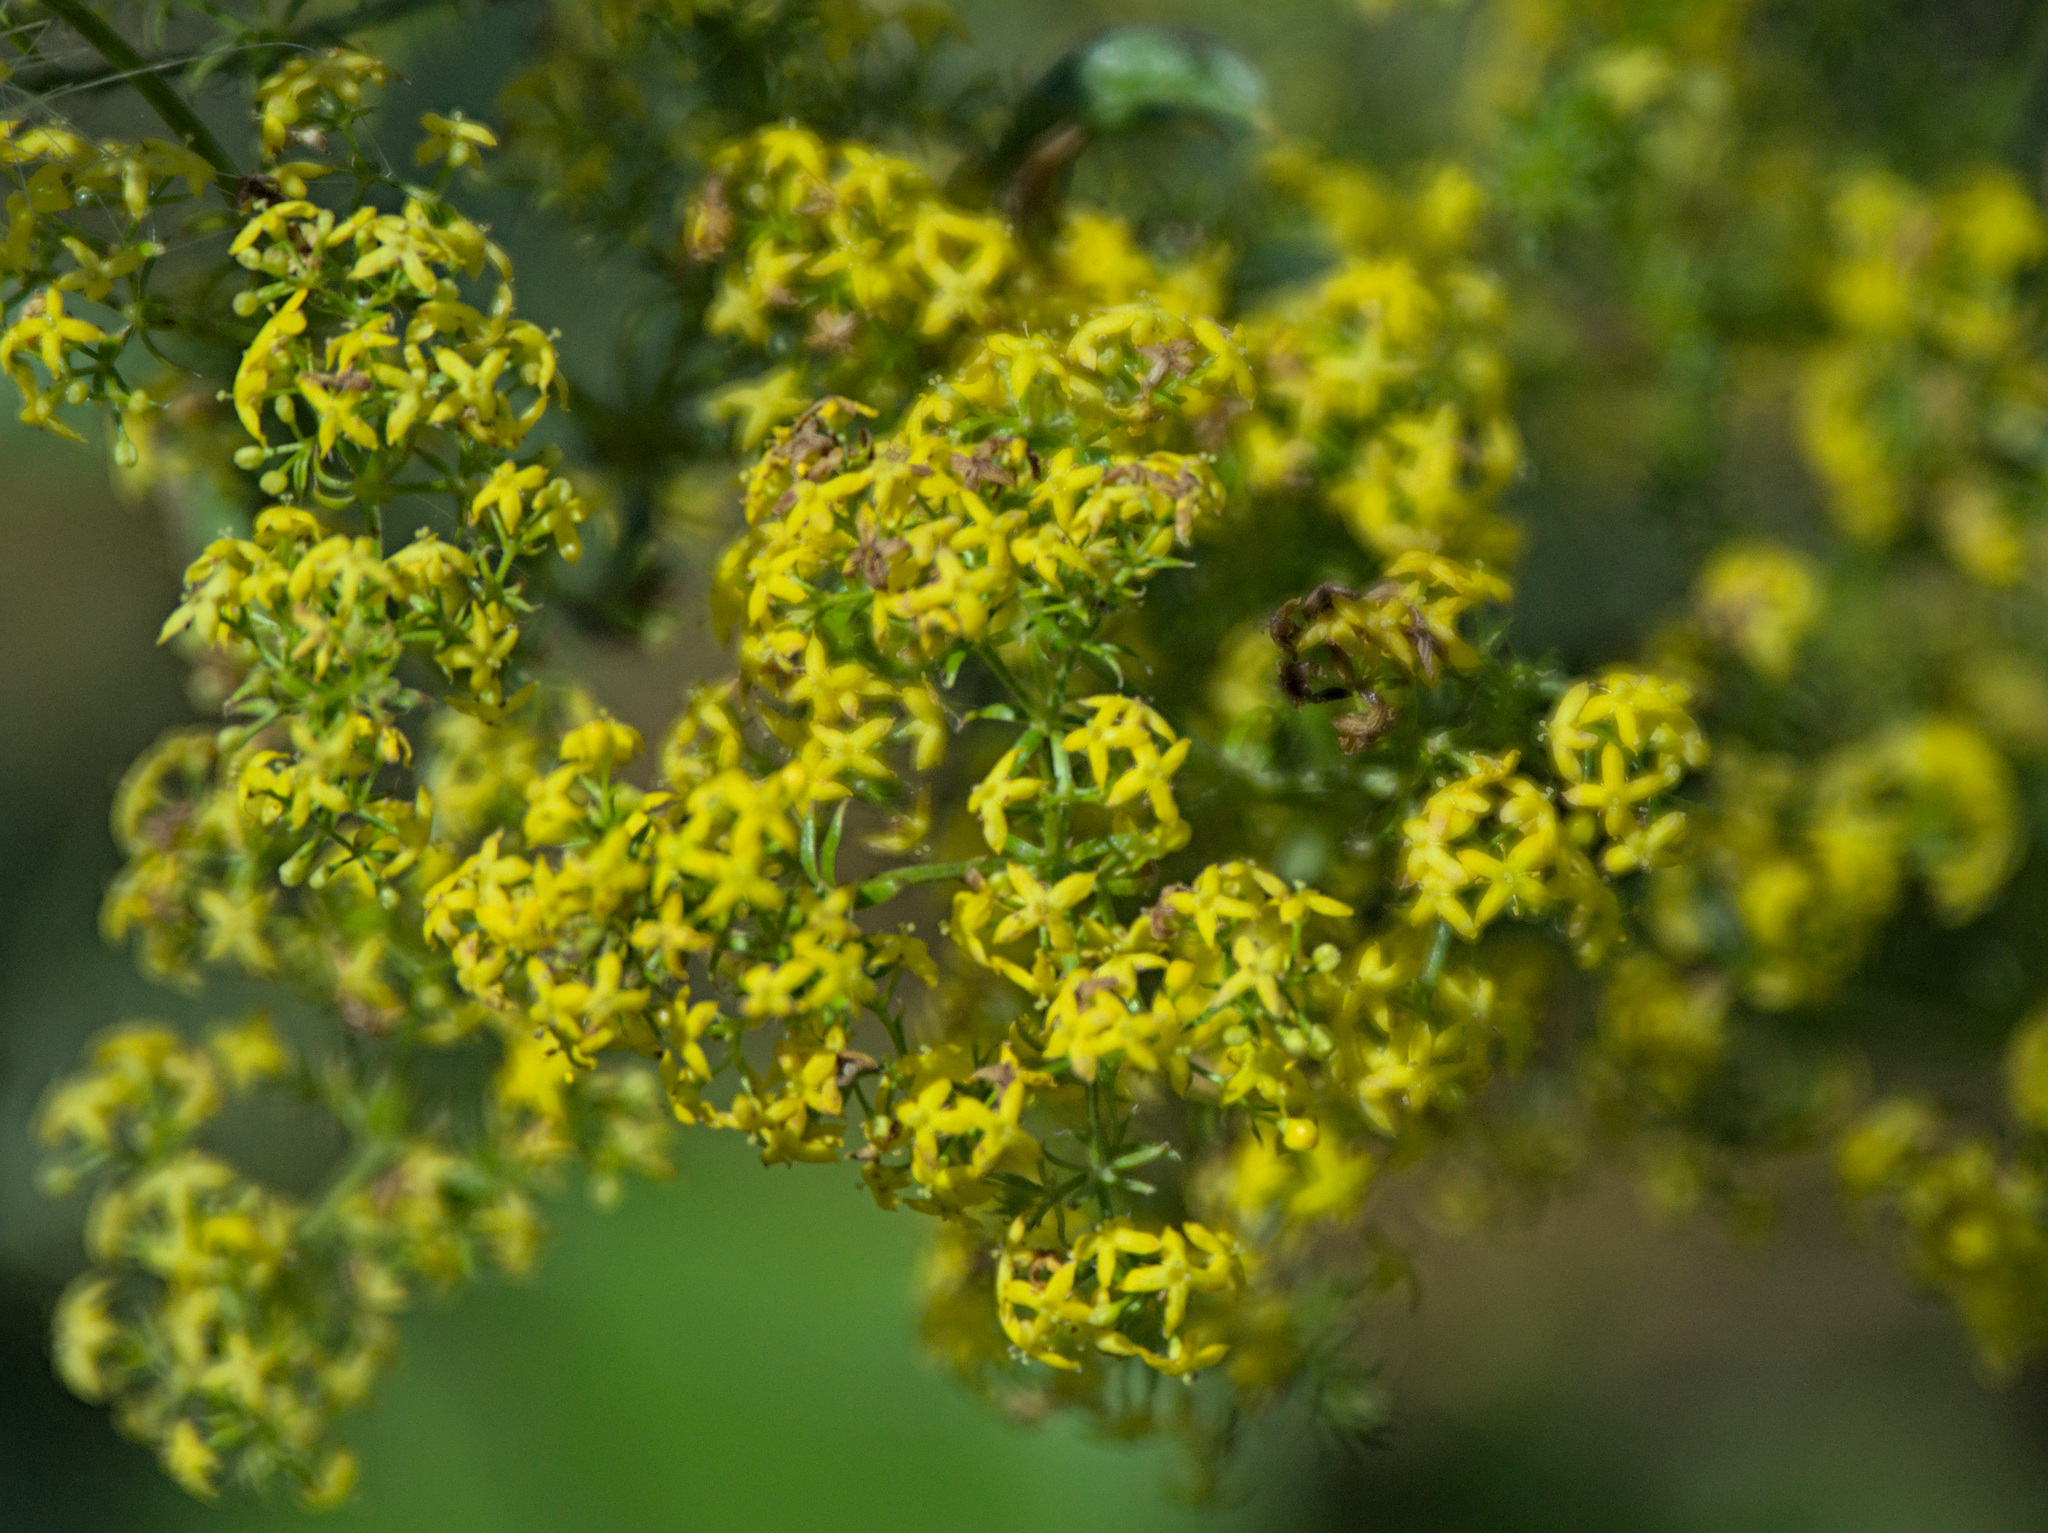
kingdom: Plantae
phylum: Tracheophyta
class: Magnoliopsida
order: Gentianales
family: Rubiaceae
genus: Galium
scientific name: Galium verum
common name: Lady's bedstraw
